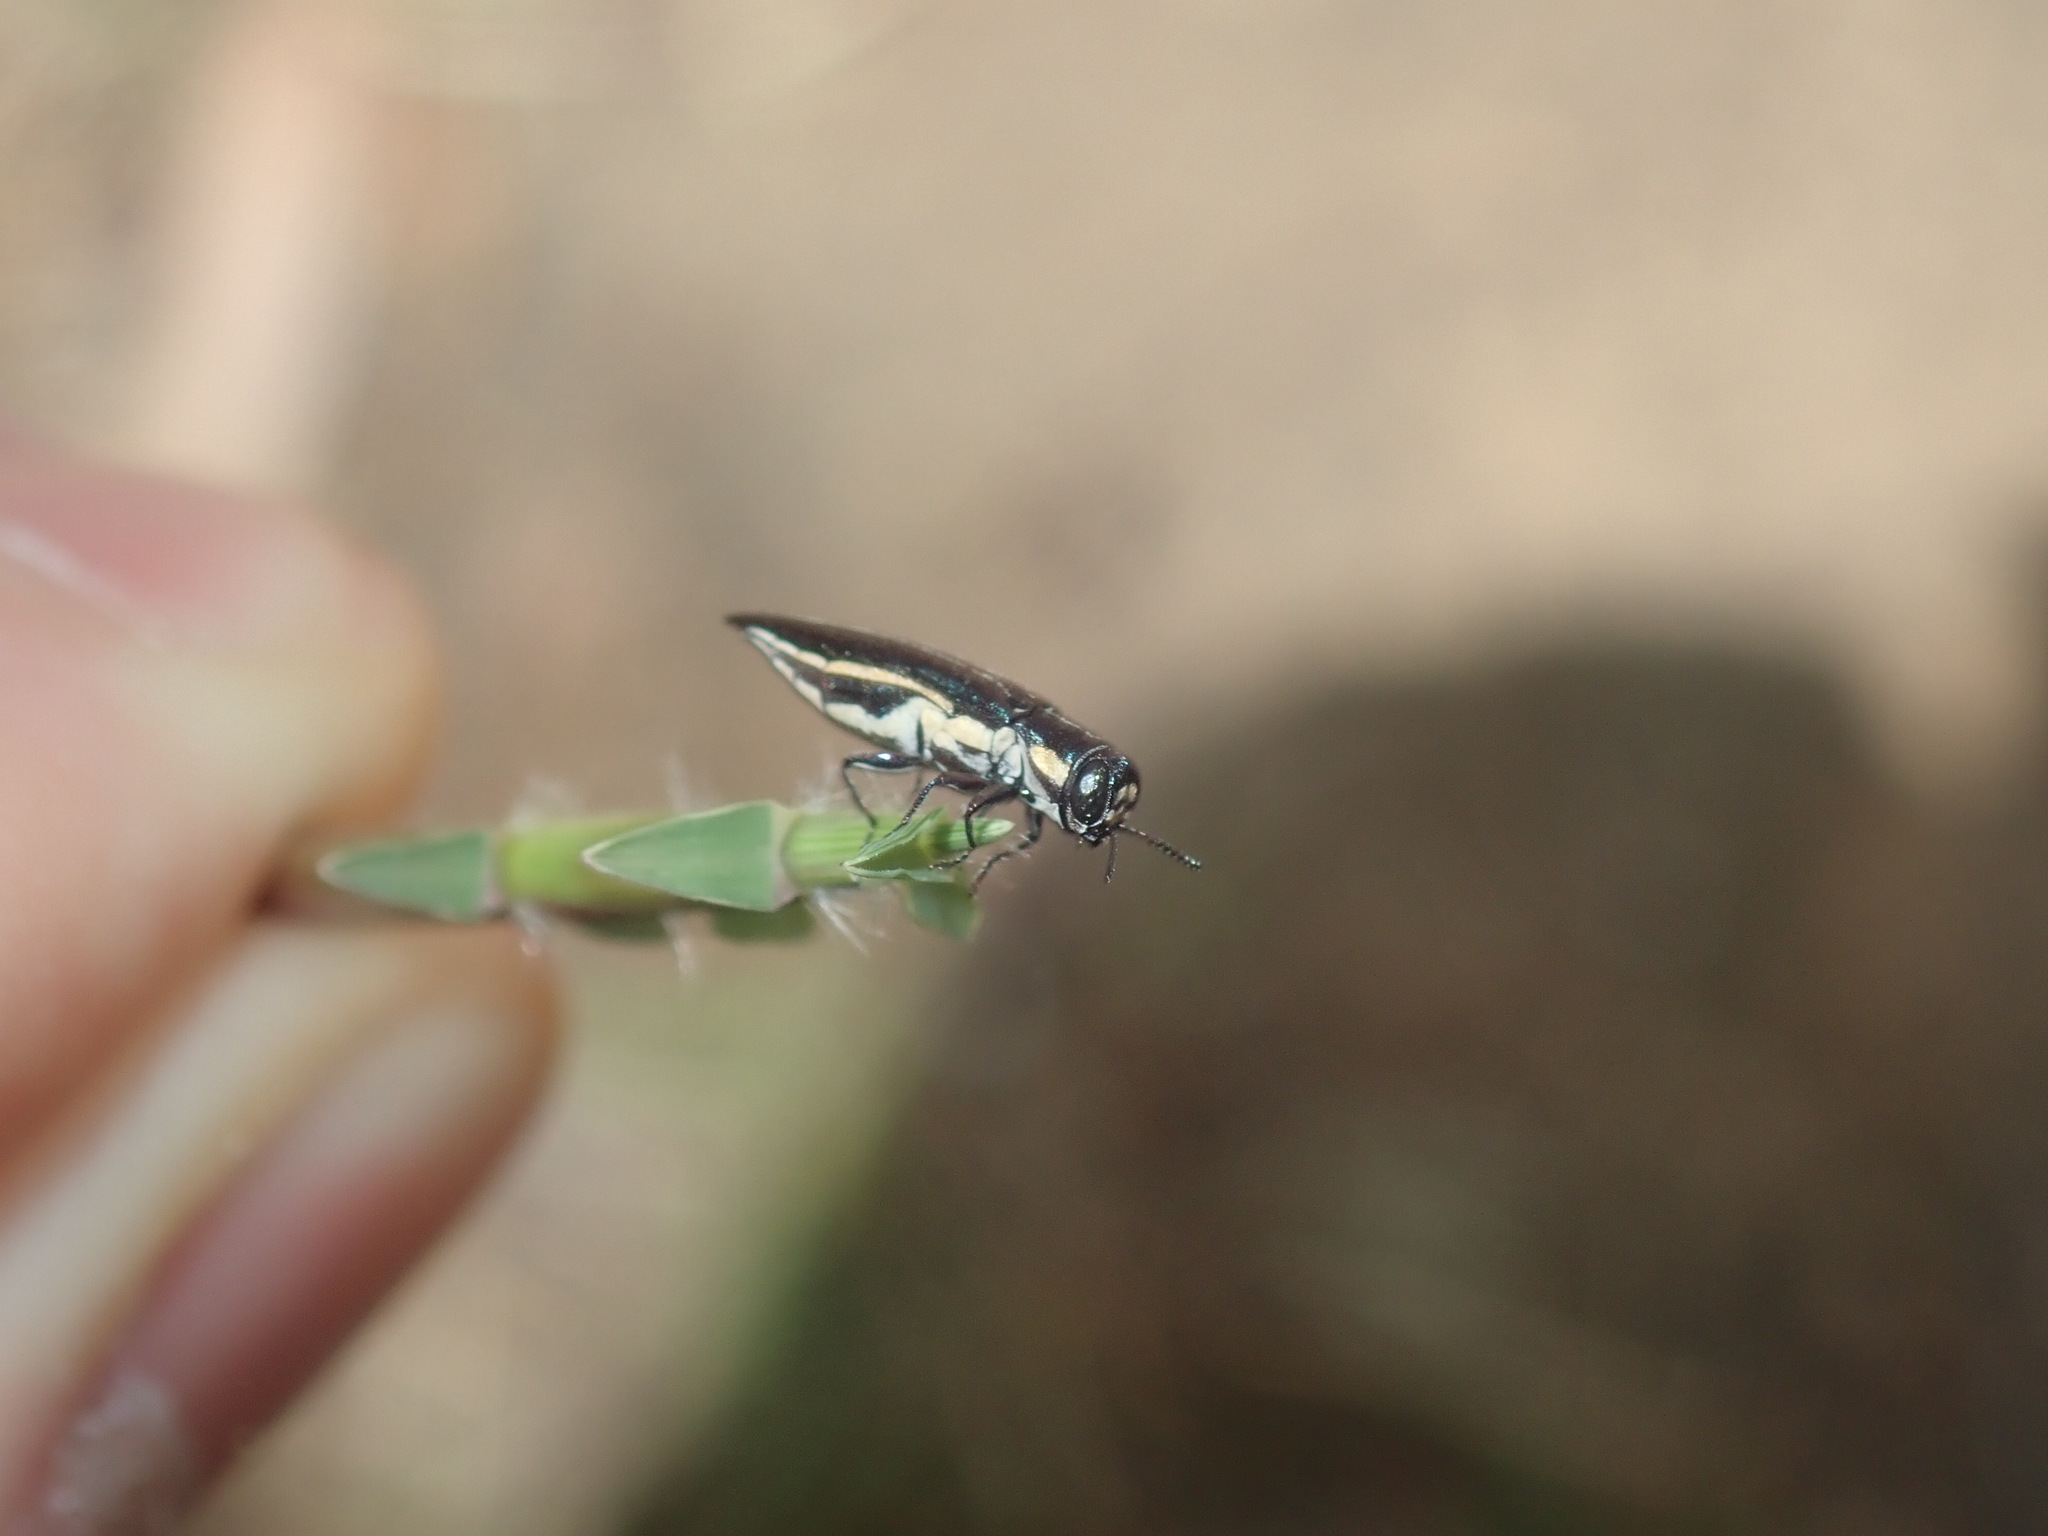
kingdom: Animalia
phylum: Arthropoda
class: Insecta
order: Coleoptera
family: Buprestidae
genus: Agrilus
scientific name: Agrilus hypoleucus
